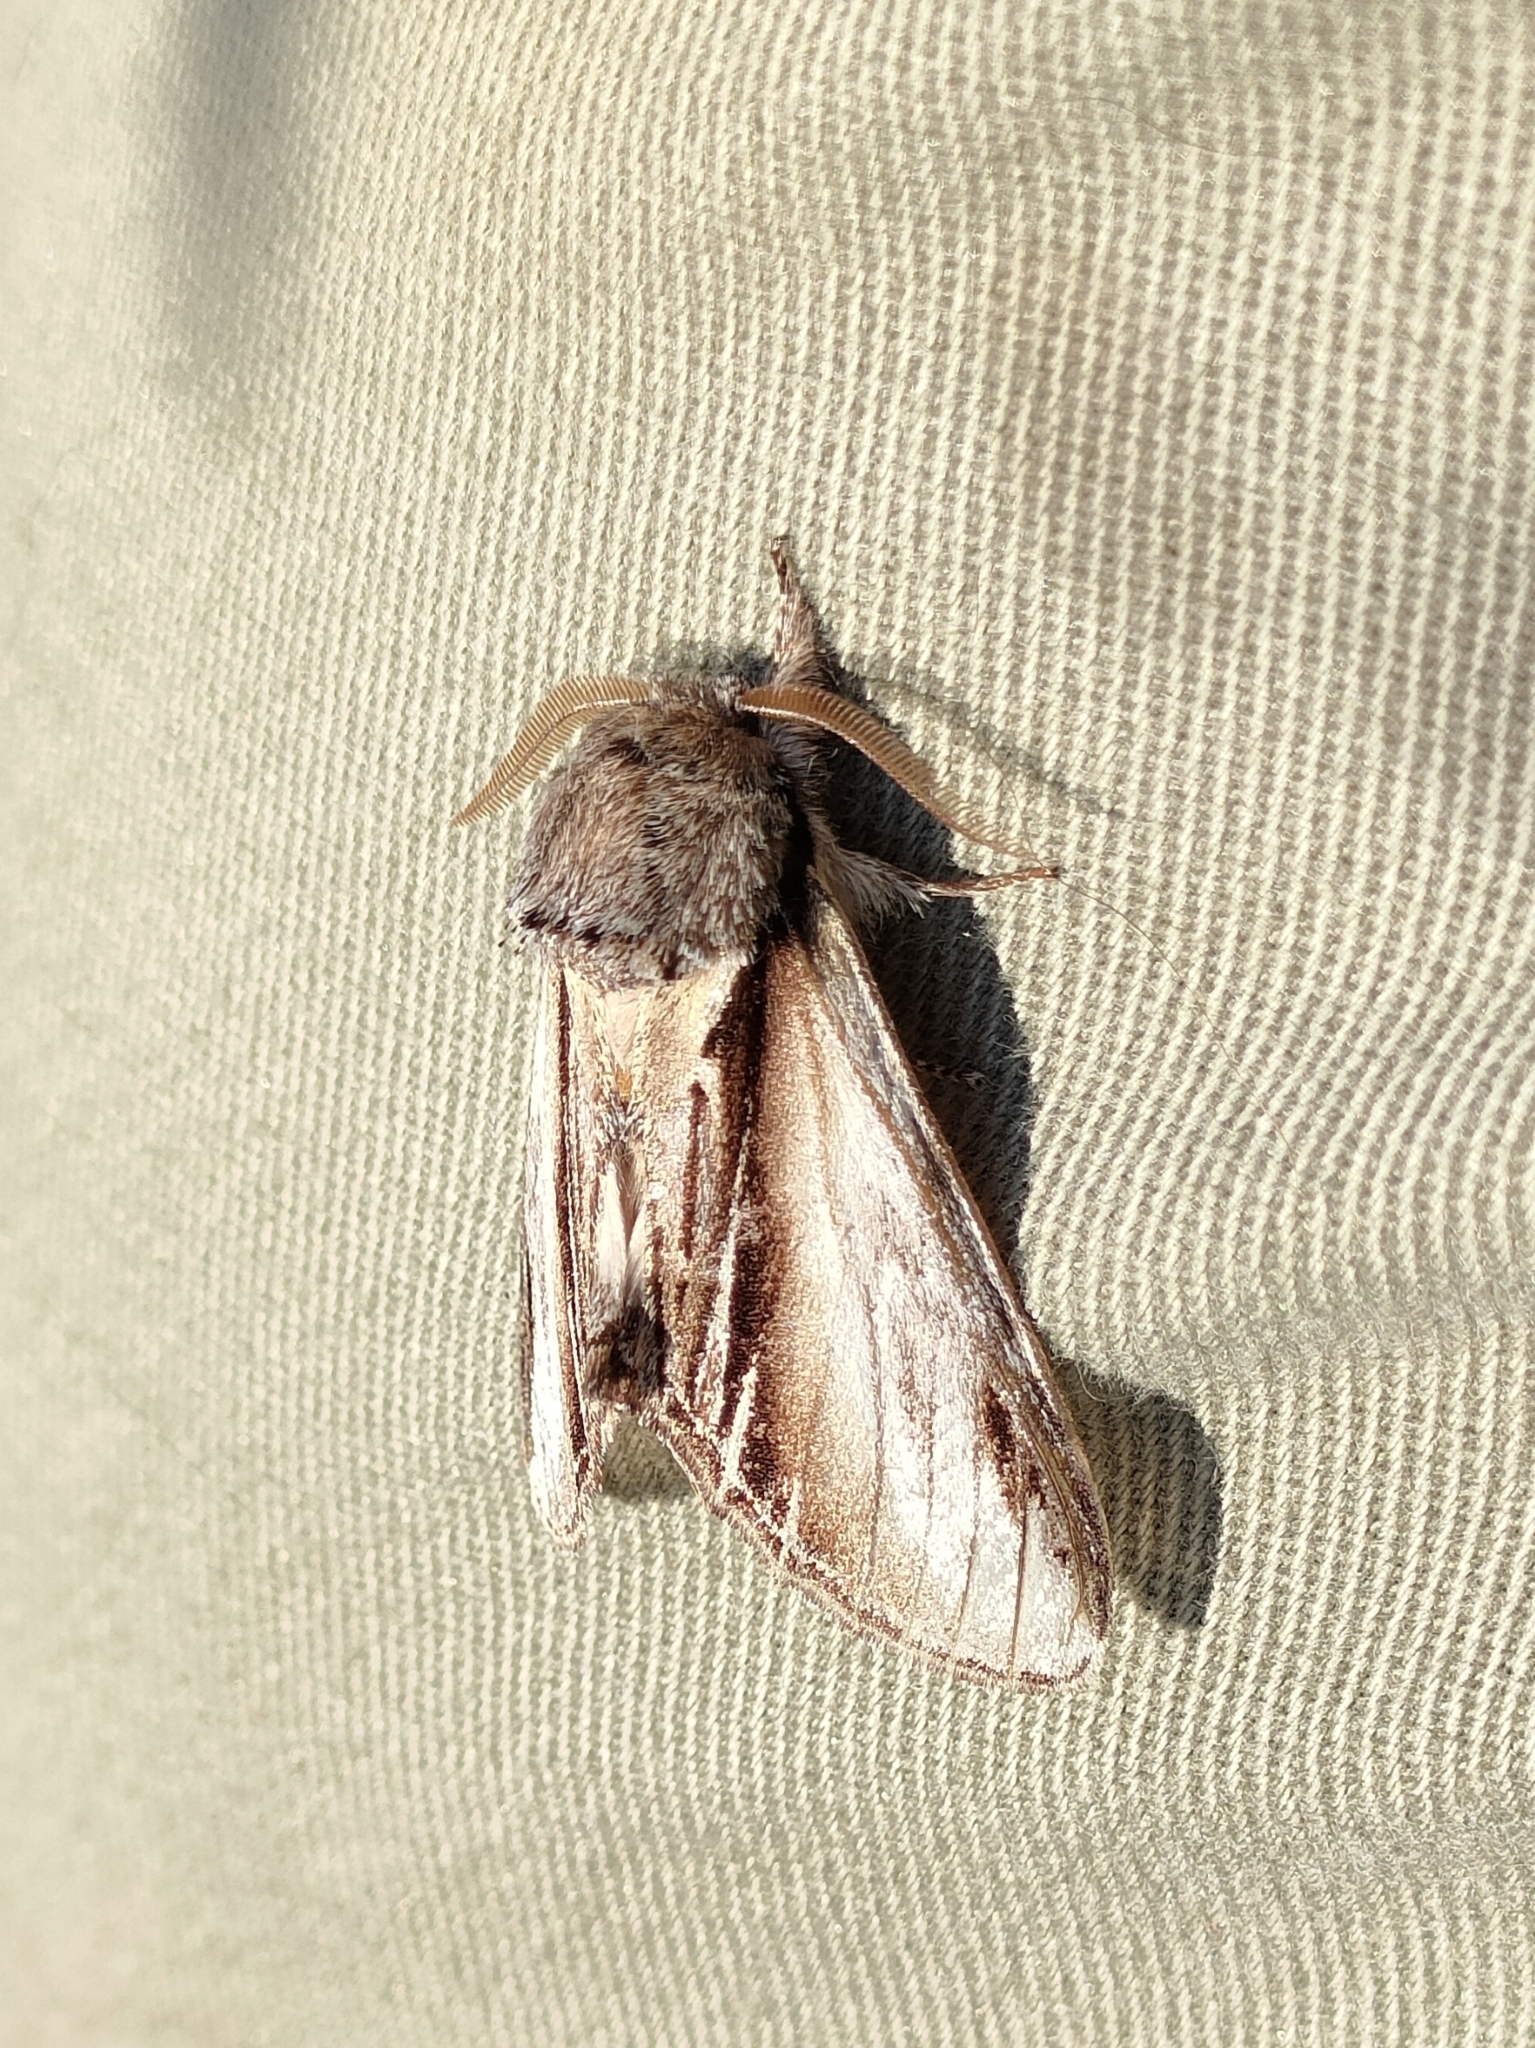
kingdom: Animalia
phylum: Arthropoda
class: Insecta
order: Lepidoptera
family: Notodontidae
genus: Pheosia
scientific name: Pheosia tremula
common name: Swallow prominent
